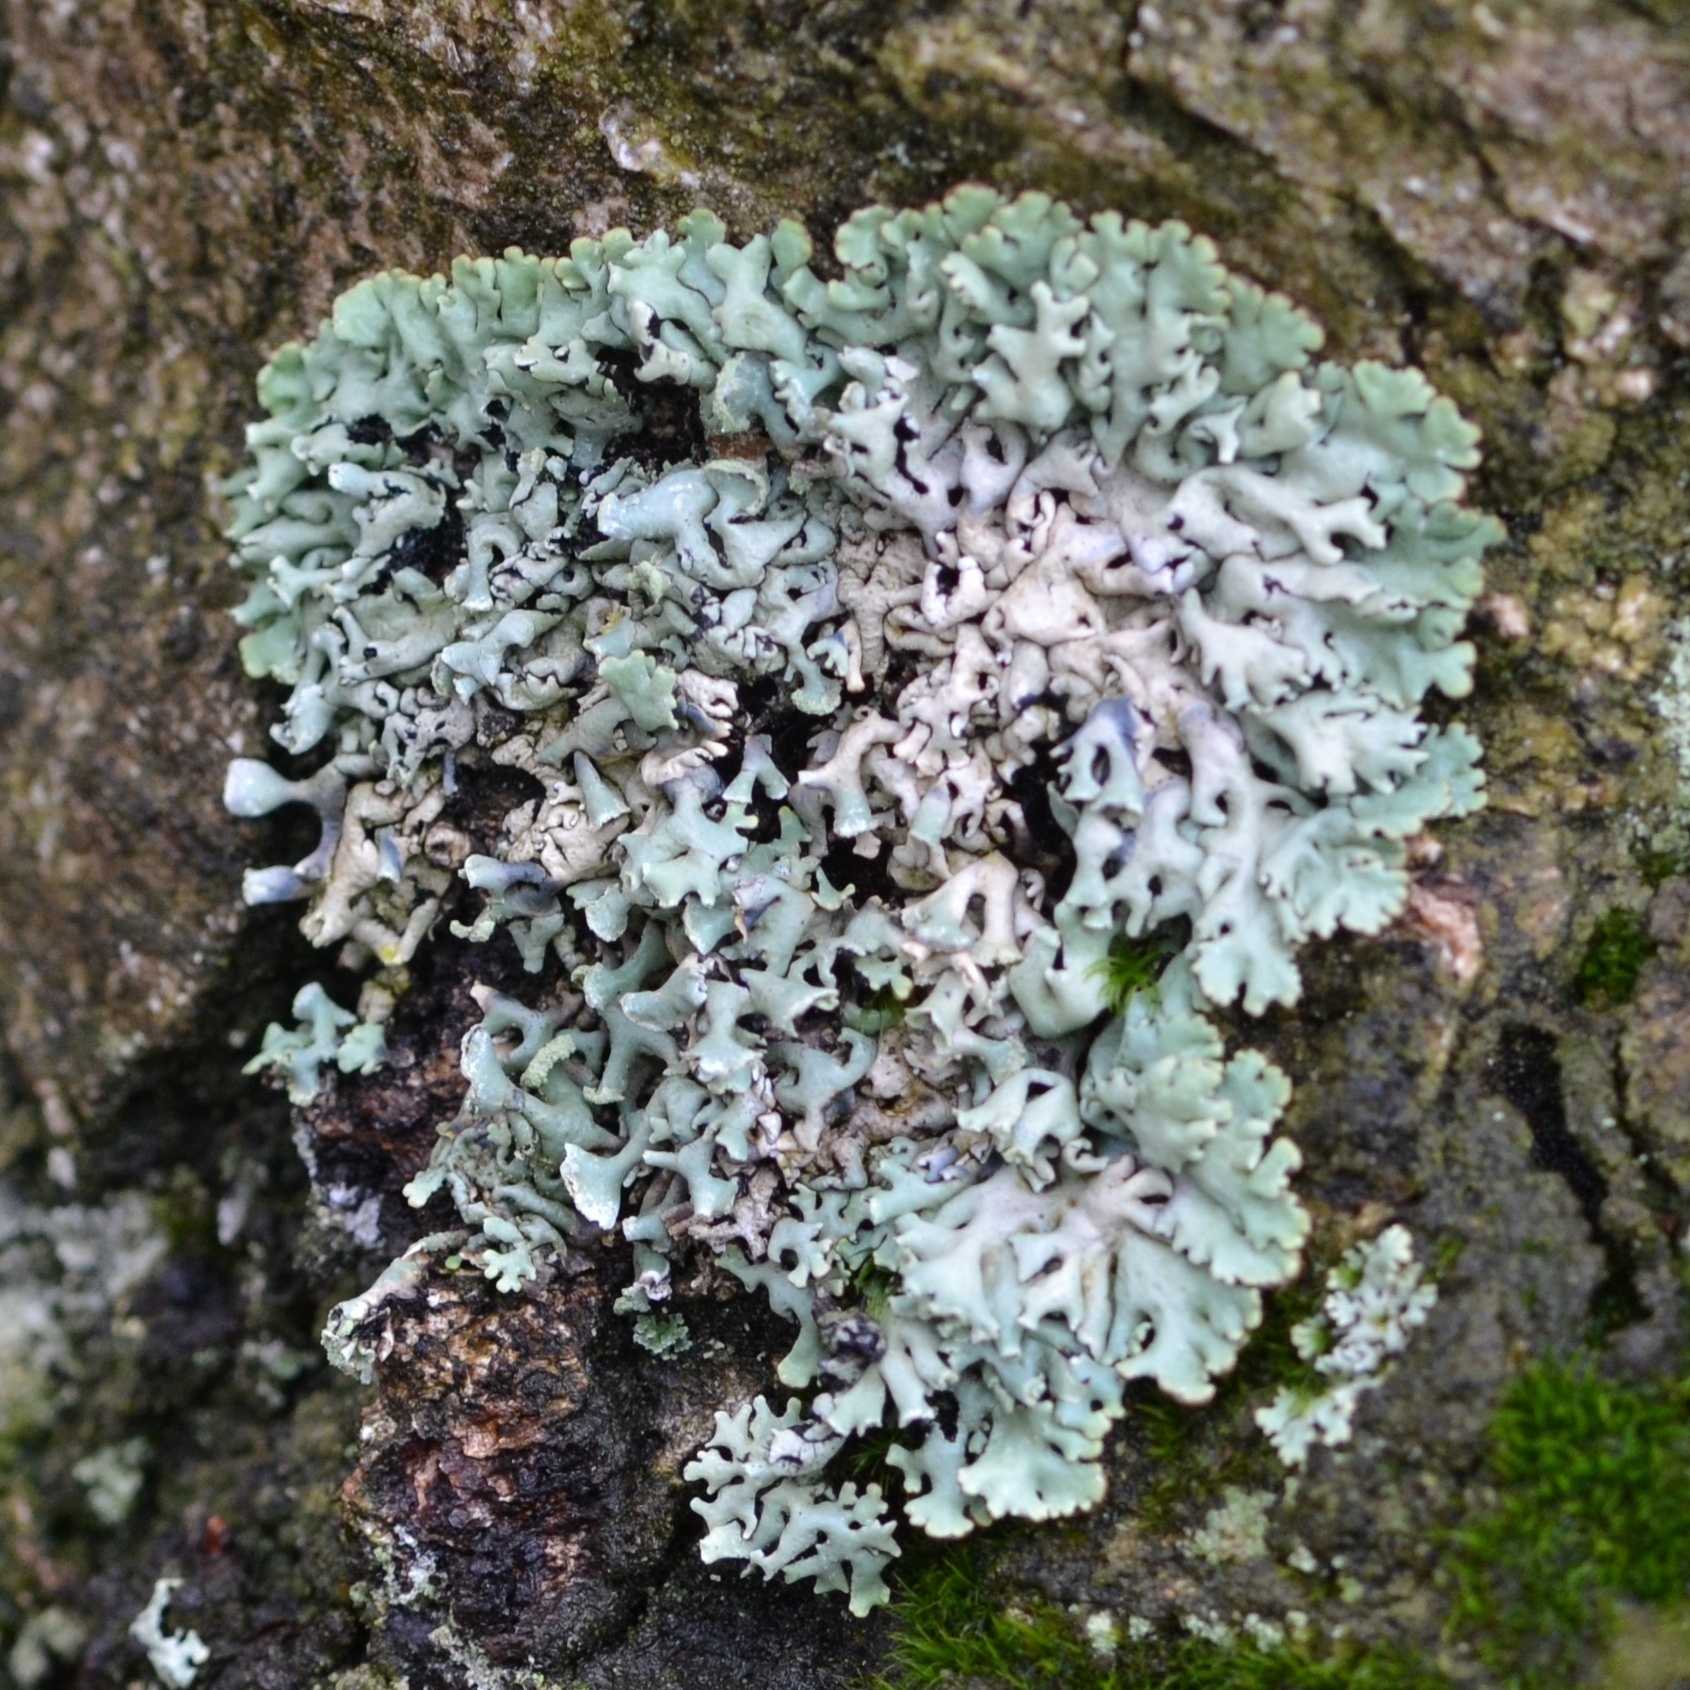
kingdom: Fungi
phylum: Ascomycota
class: Lecanoromycetes
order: Lecanorales
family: Parmeliaceae
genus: Hypogymnia
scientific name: Hypogymnia physodes
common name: Dark crottle
